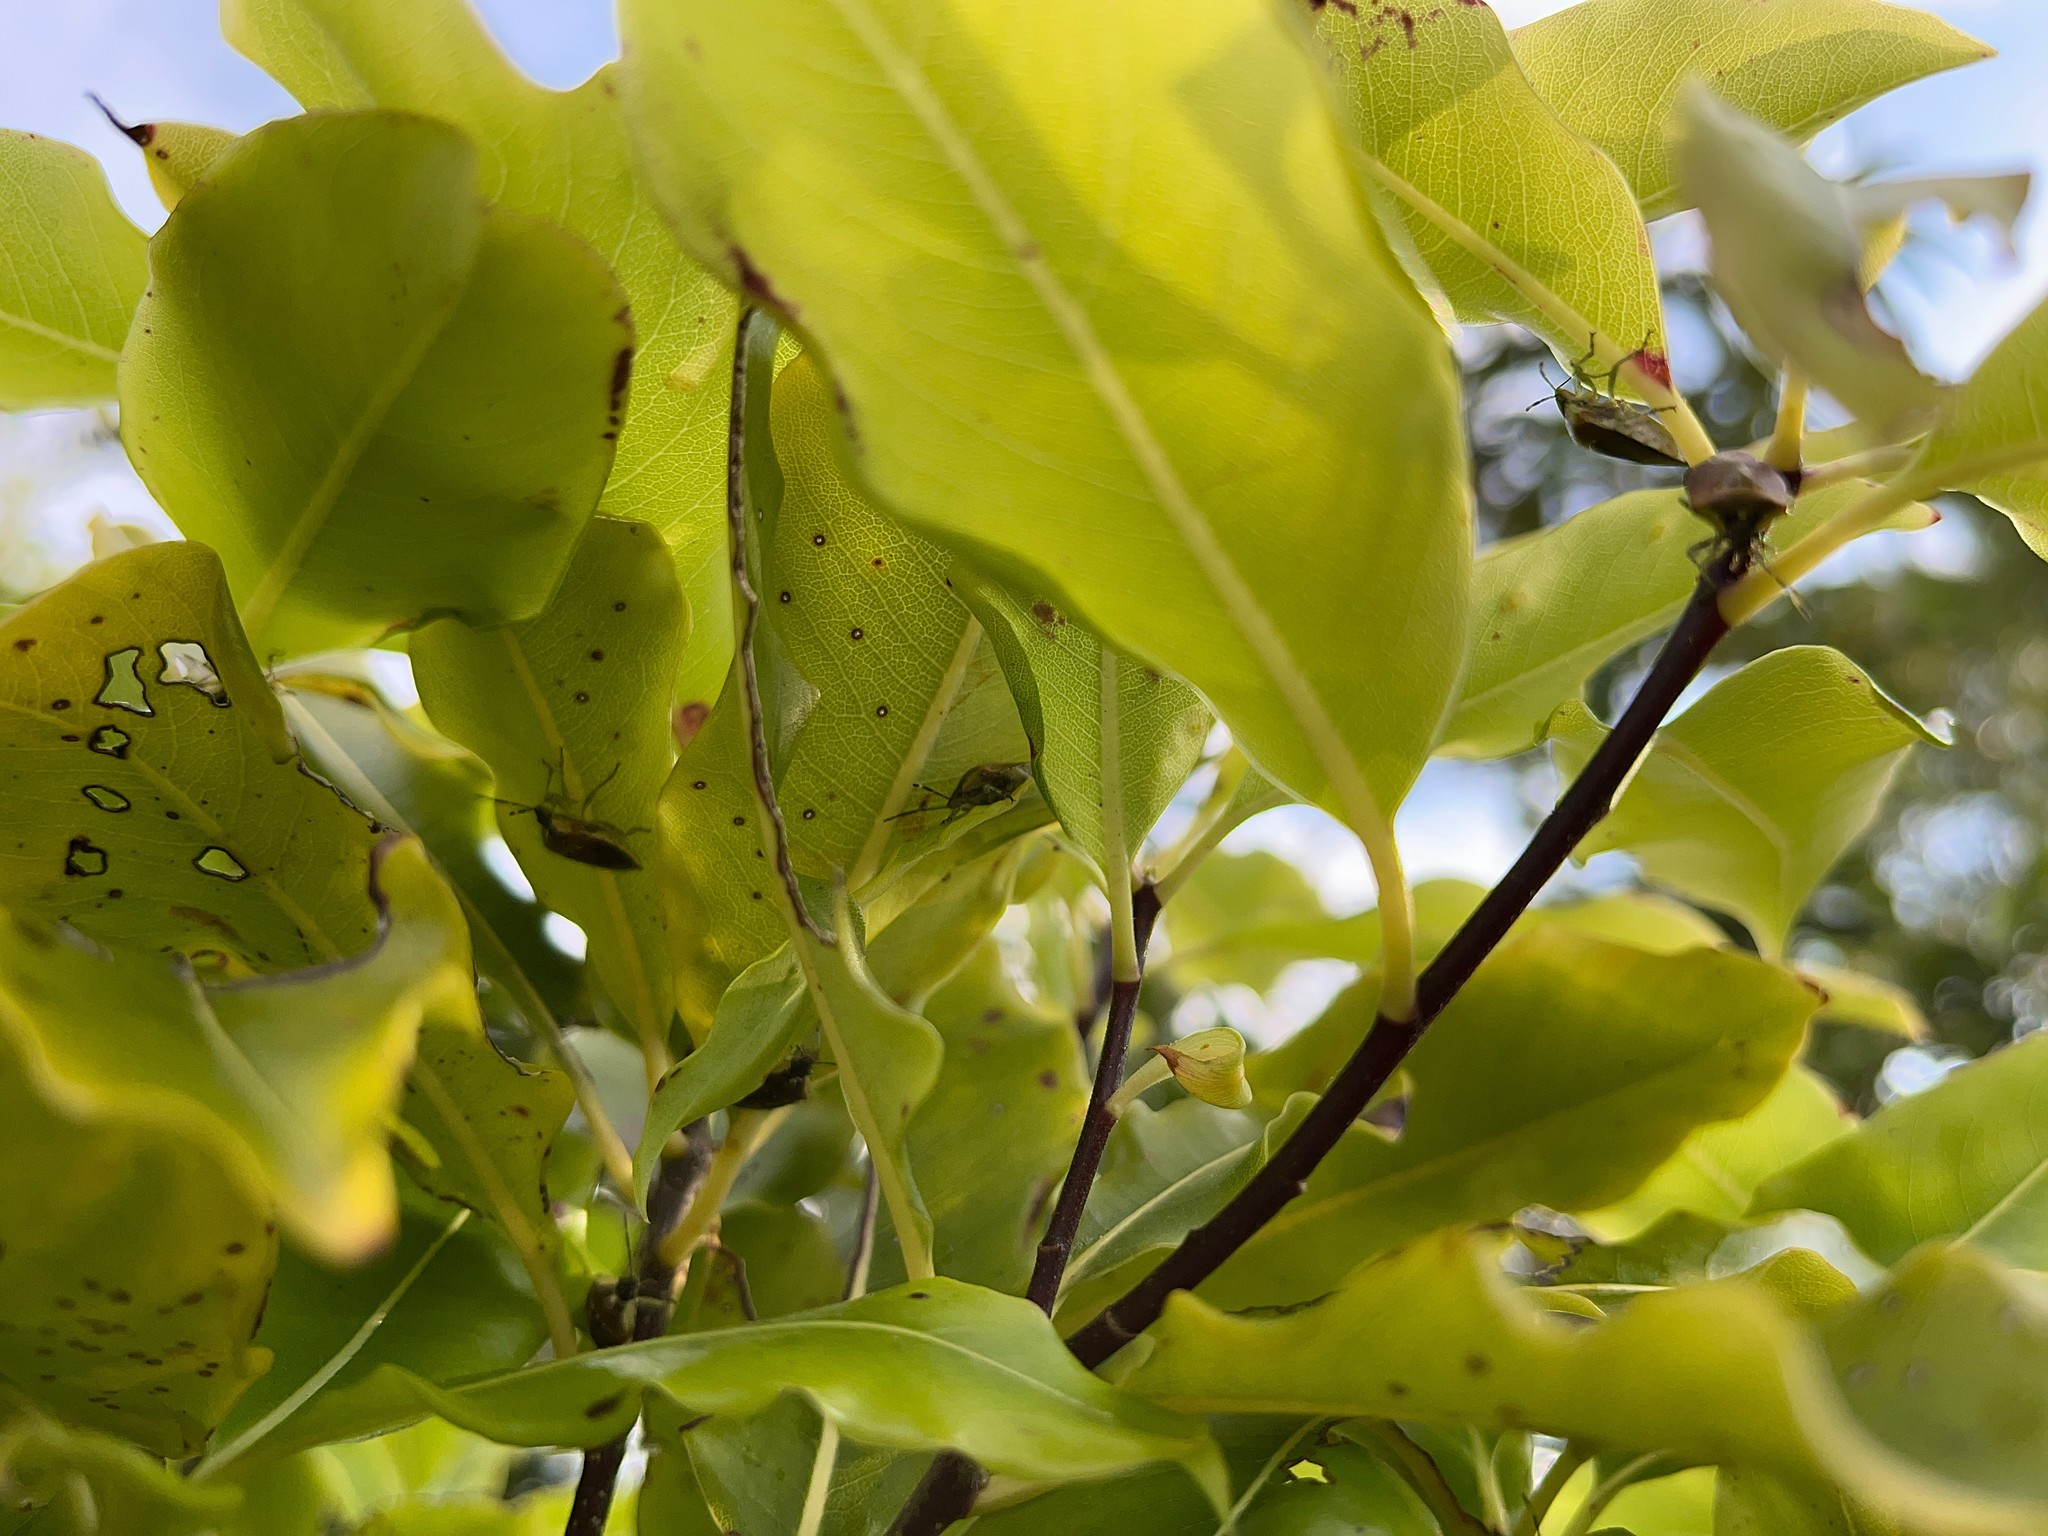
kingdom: Animalia
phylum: Arthropoda
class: Insecta
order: Hemiptera
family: Pentatomidae
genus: Monteithiella
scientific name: Monteithiella
